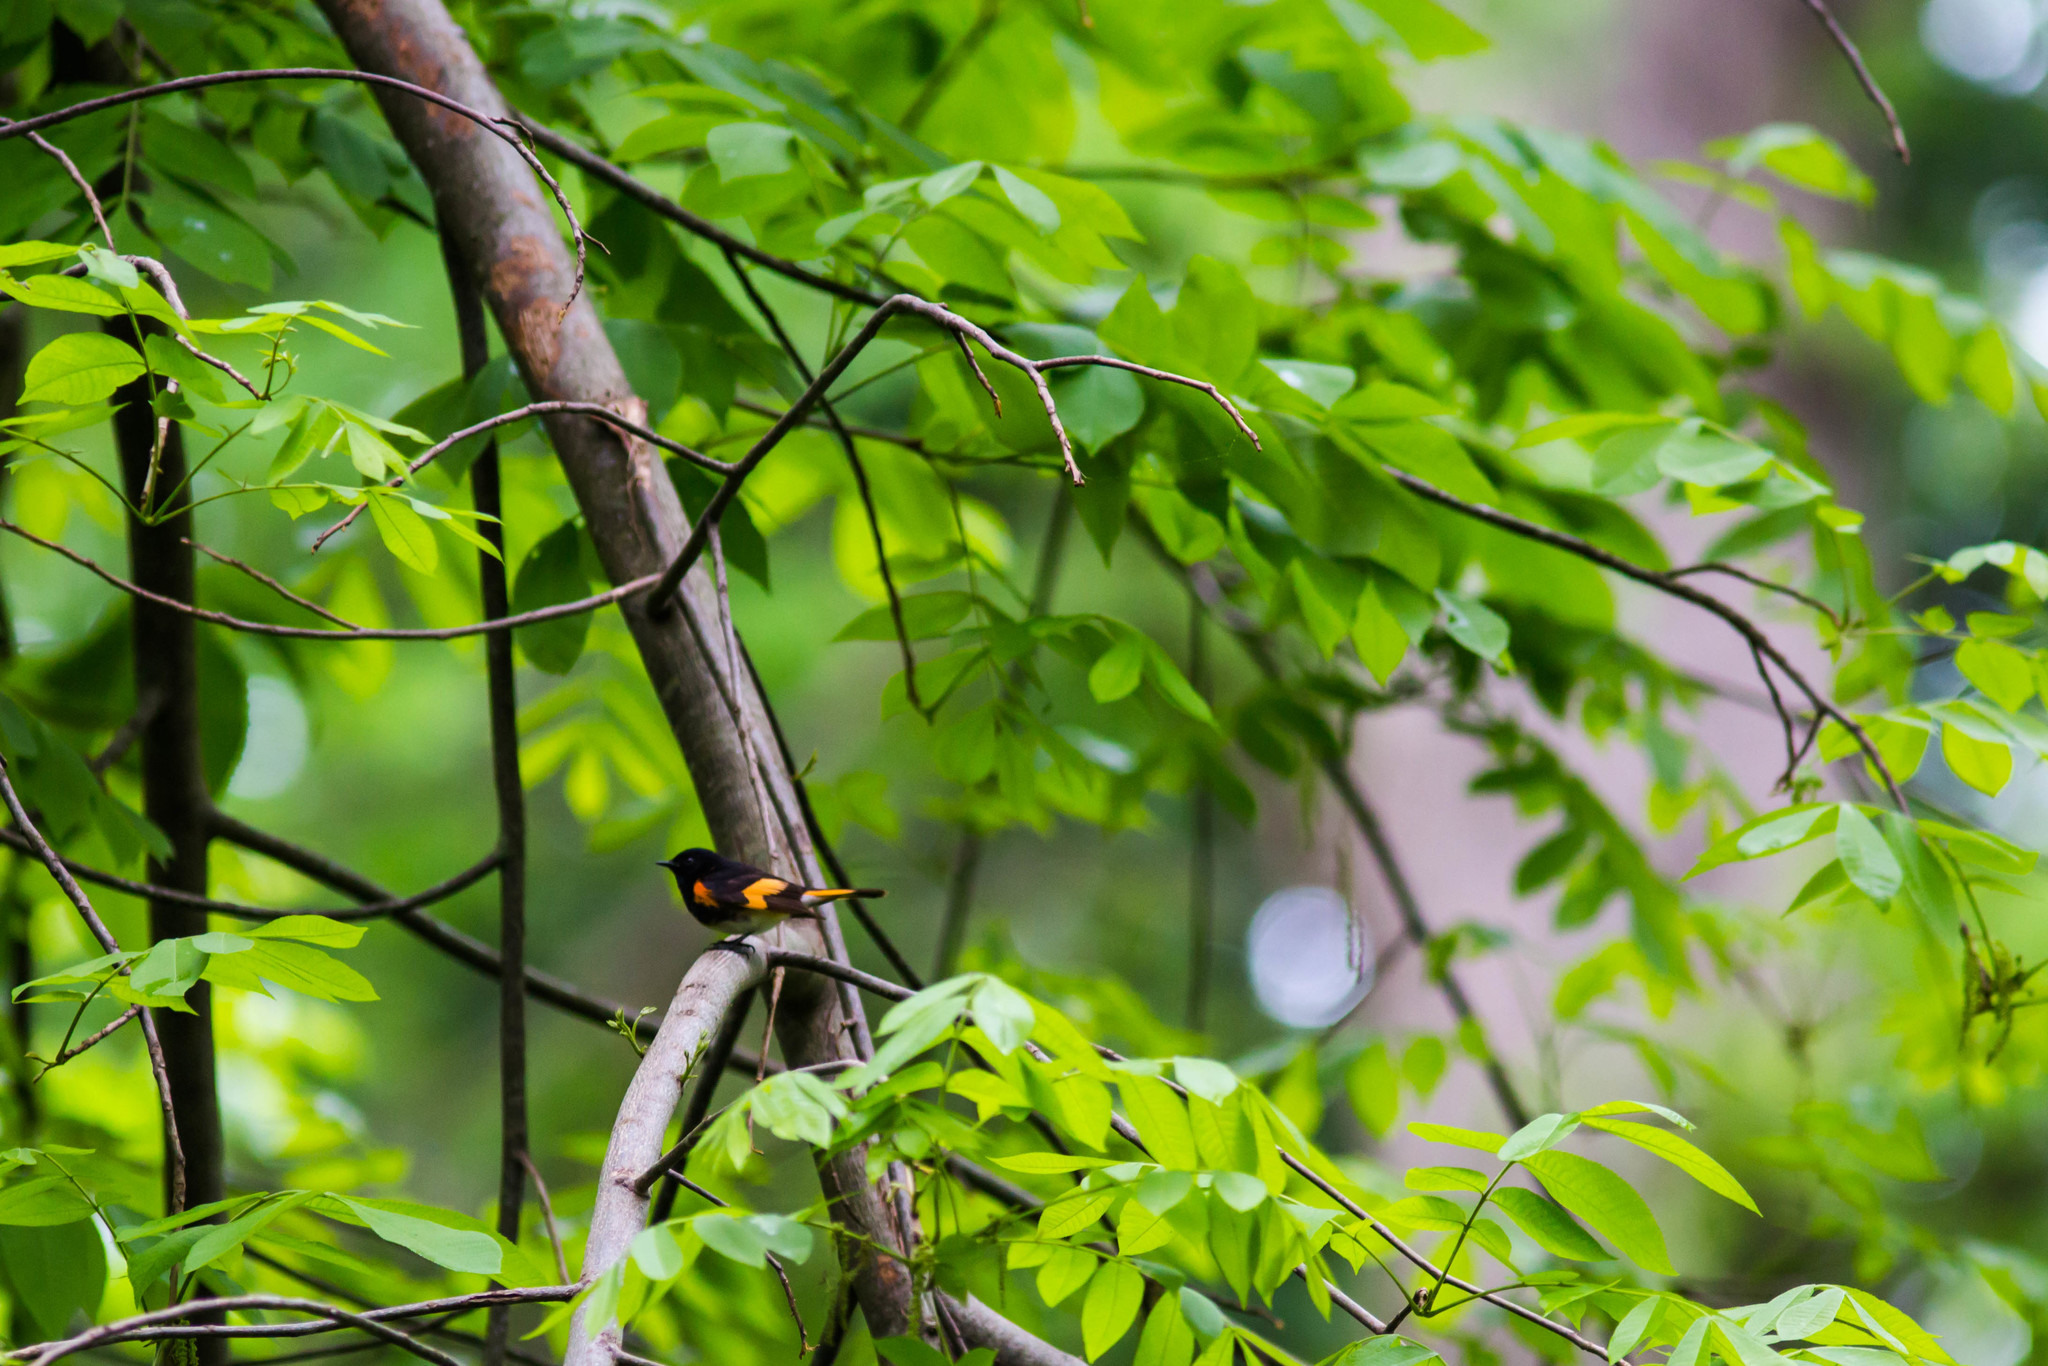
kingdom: Animalia
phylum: Chordata
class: Aves
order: Passeriformes
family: Parulidae
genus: Setophaga
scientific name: Setophaga ruticilla
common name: American redstart
